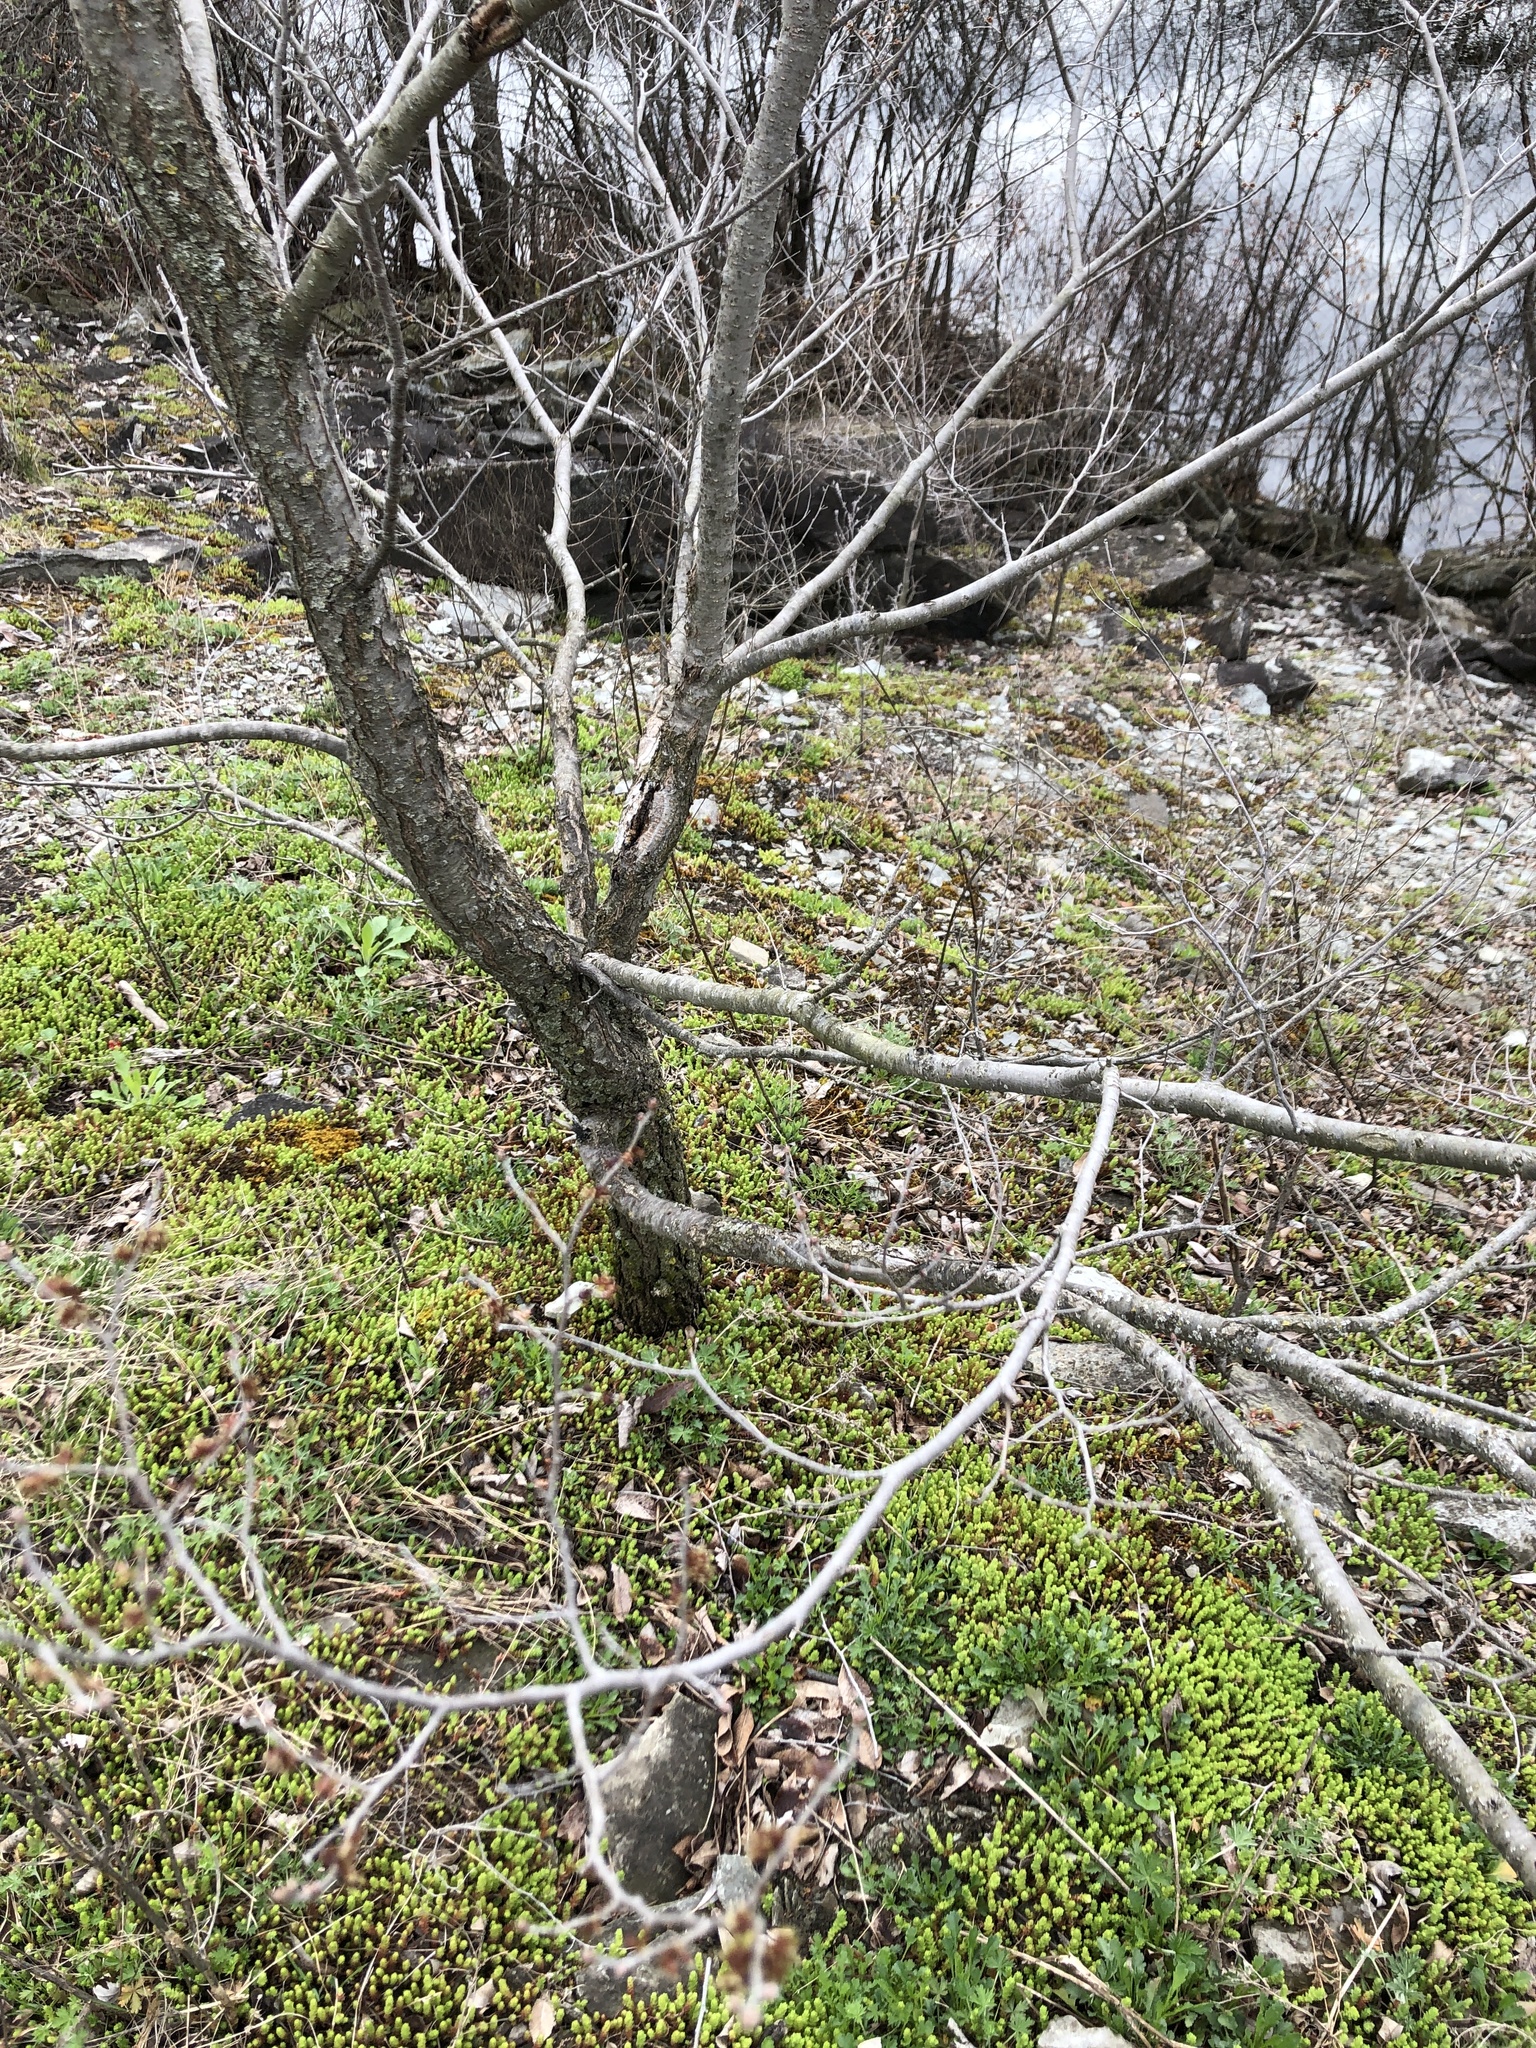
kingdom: Plantae
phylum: Tracheophyta
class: Magnoliopsida
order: Rosales
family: Ulmaceae
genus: Ulmus
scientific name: Ulmus pumila
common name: Siberian elm
